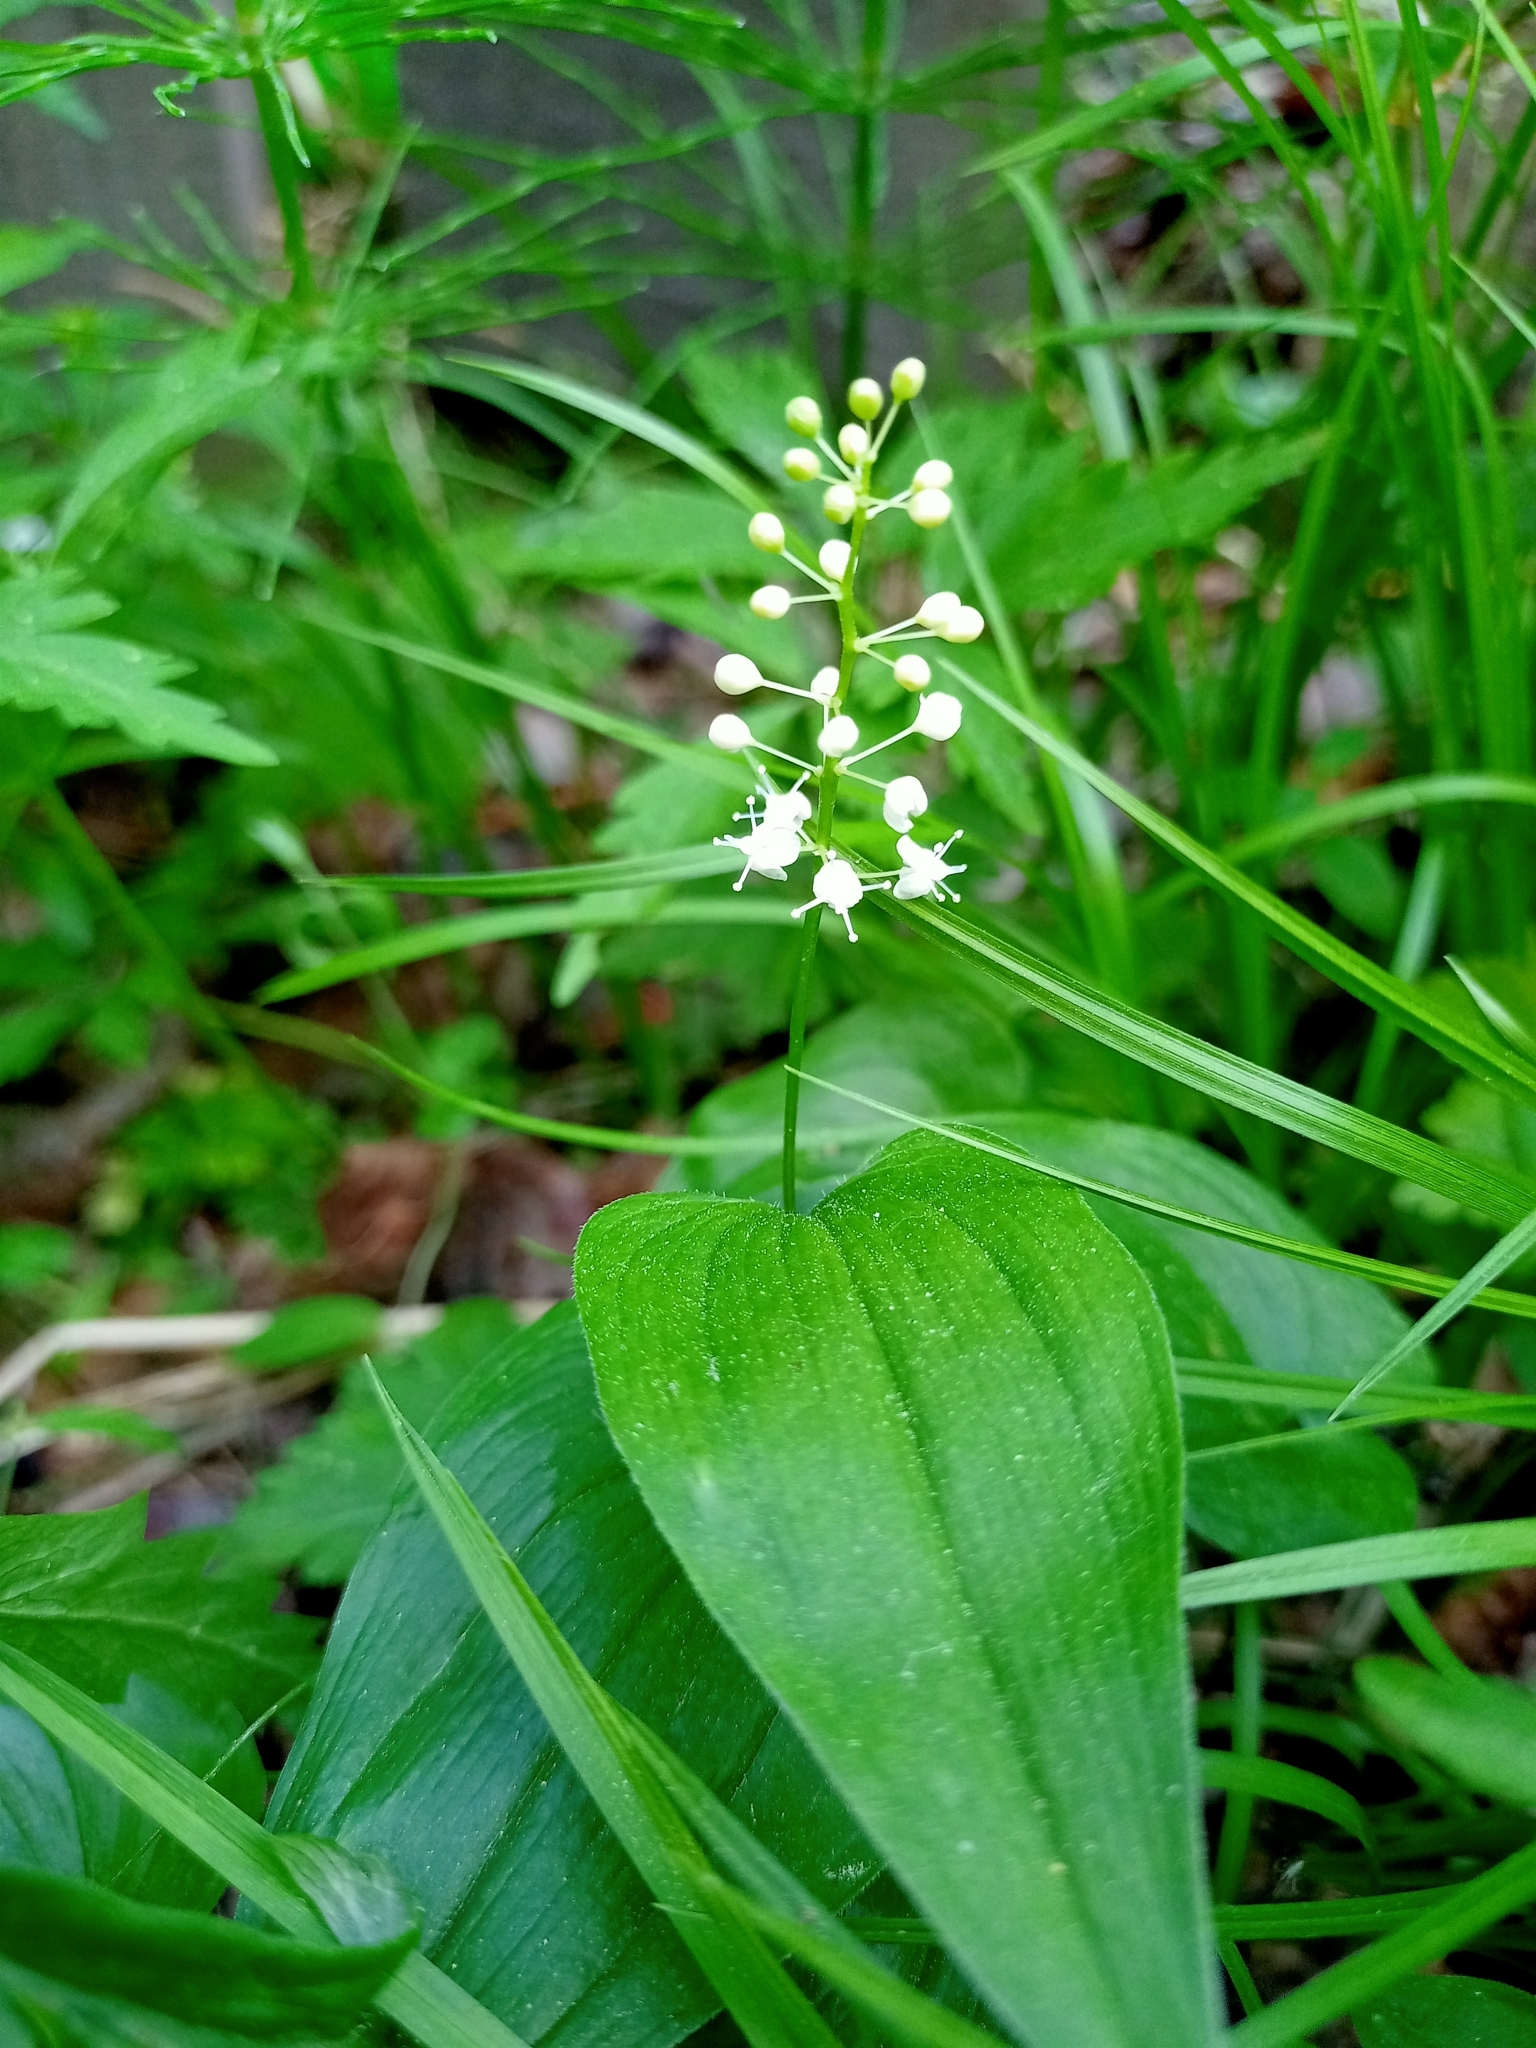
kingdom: Plantae
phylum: Tracheophyta
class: Liliopsida
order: Asparagales
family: Asparagaceae
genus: Maianthemum
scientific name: Maianthemum bifolium
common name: May lily
